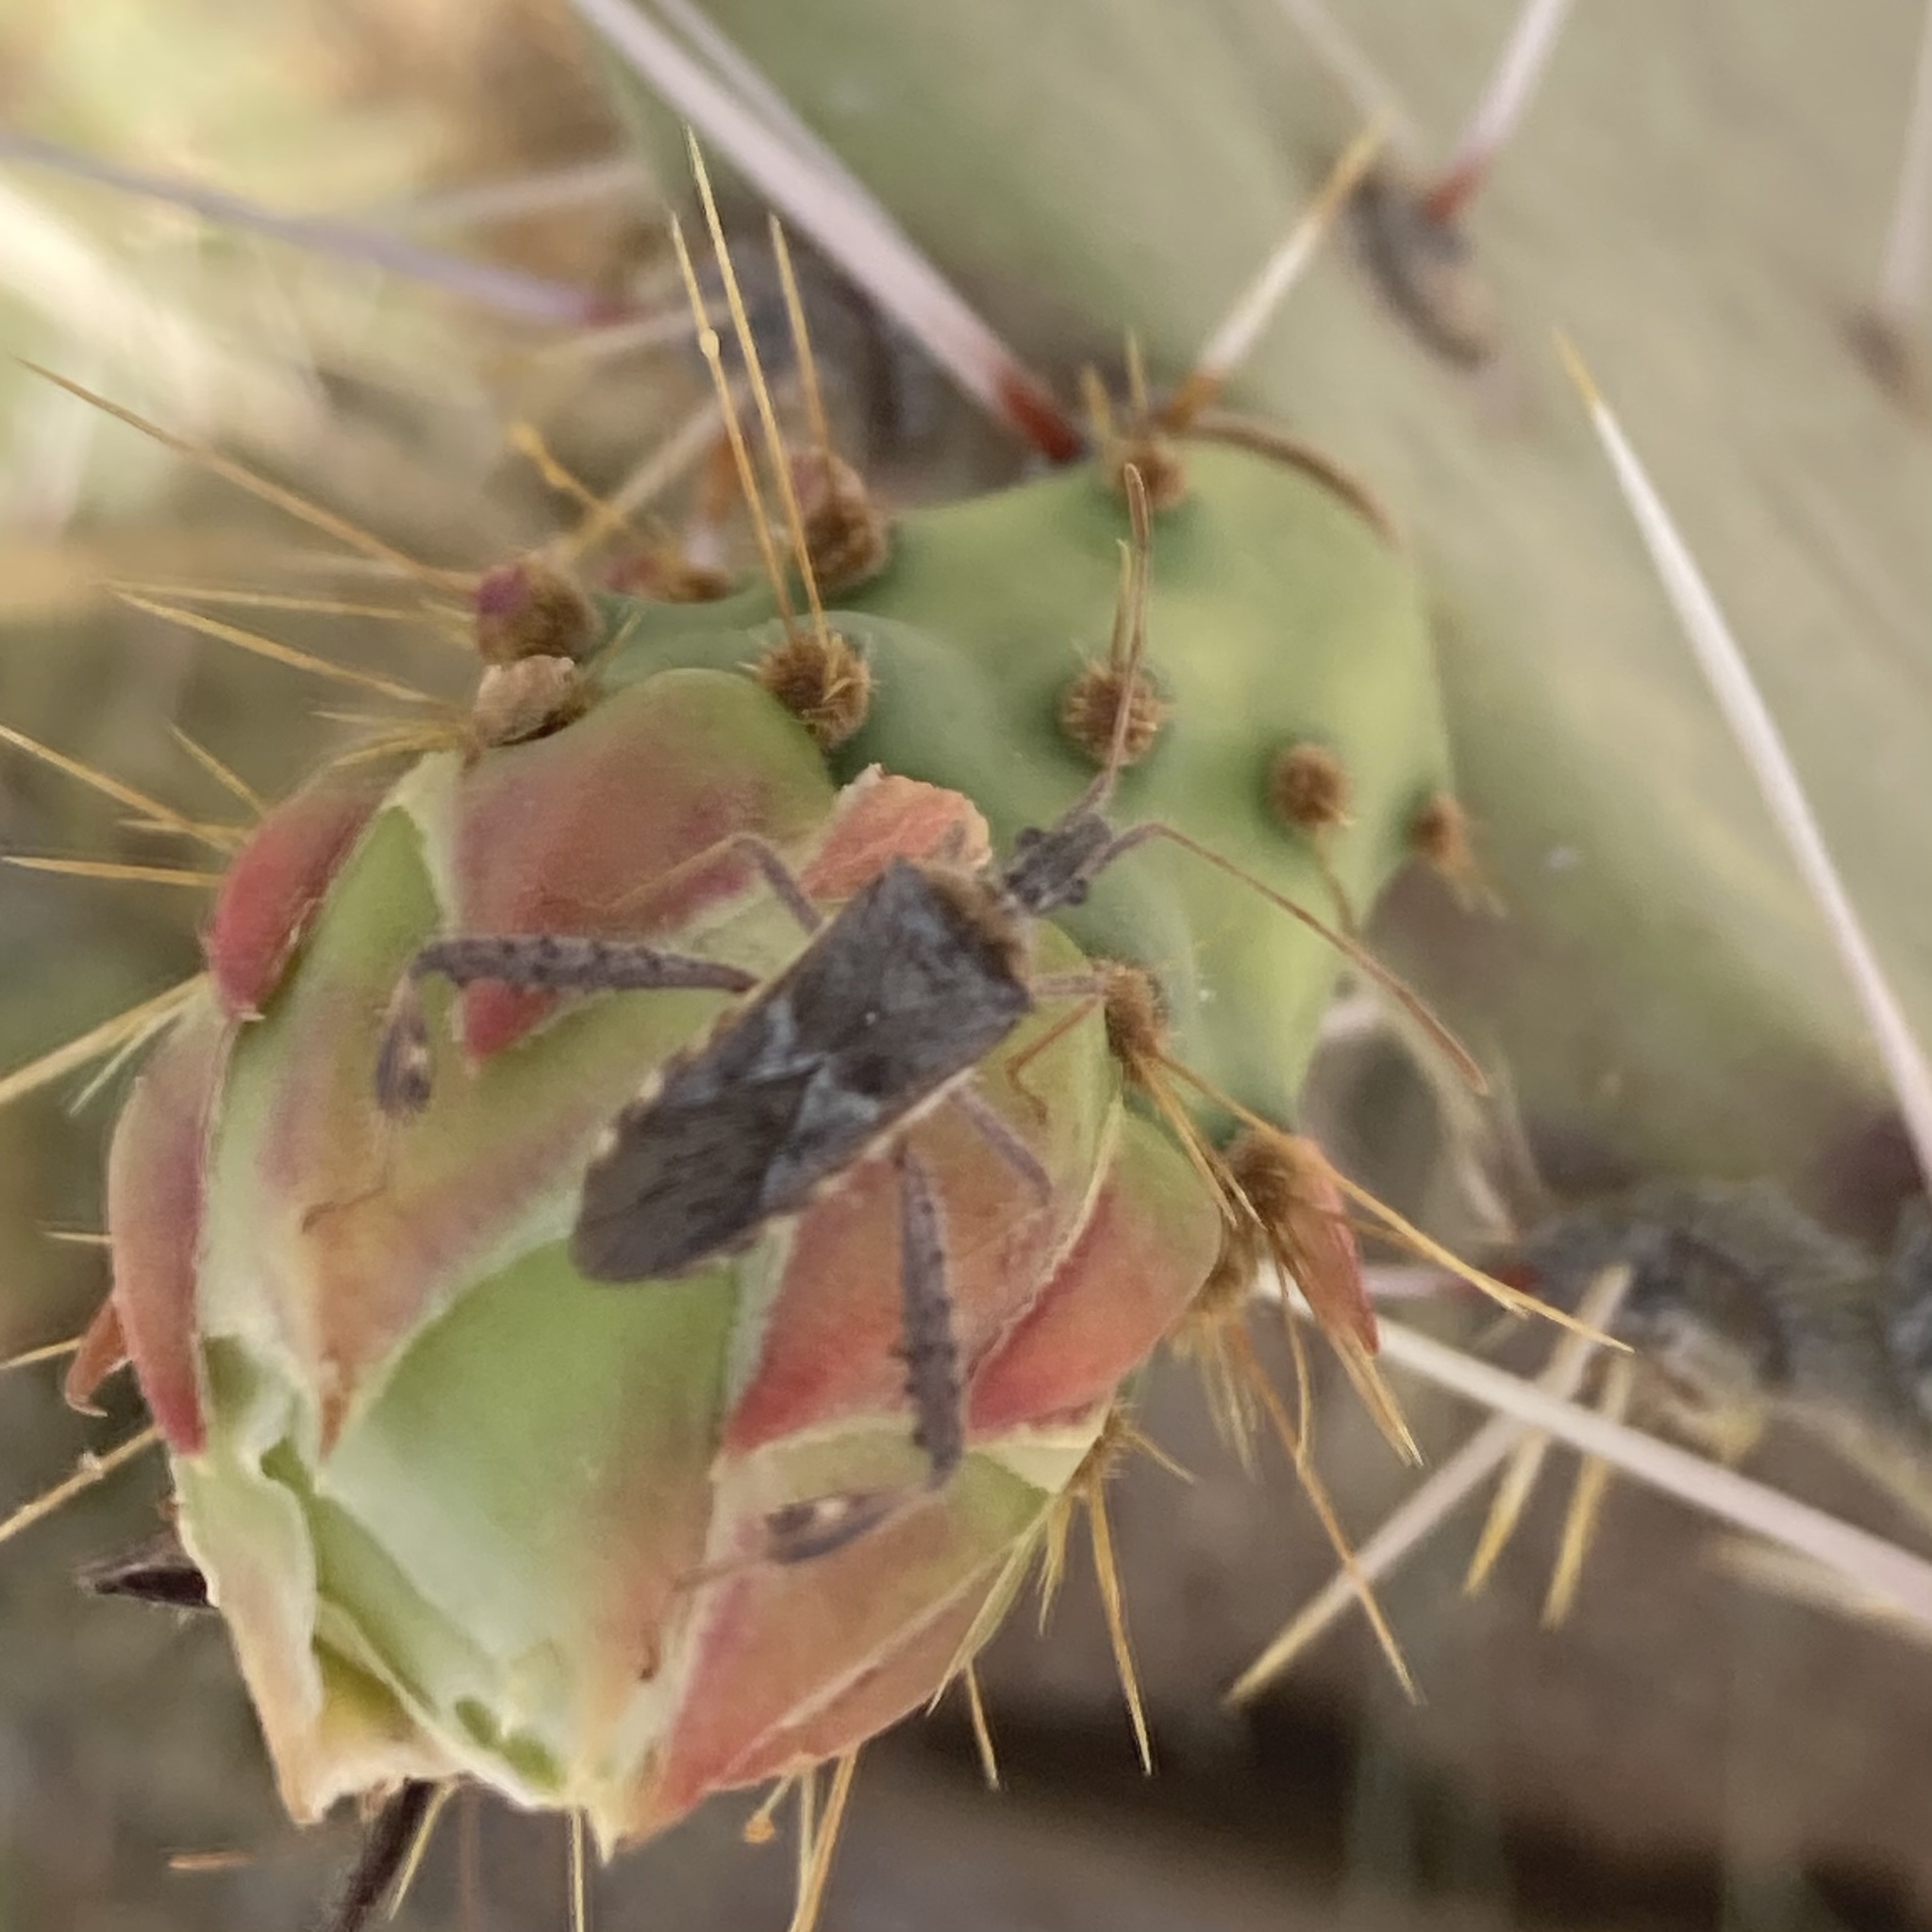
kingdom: Animalia
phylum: Arthropoda
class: Insecta
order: Hemiptera
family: Coreidae
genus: Narnia
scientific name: Narnia femorata
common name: Leaf-footed cactus bug
